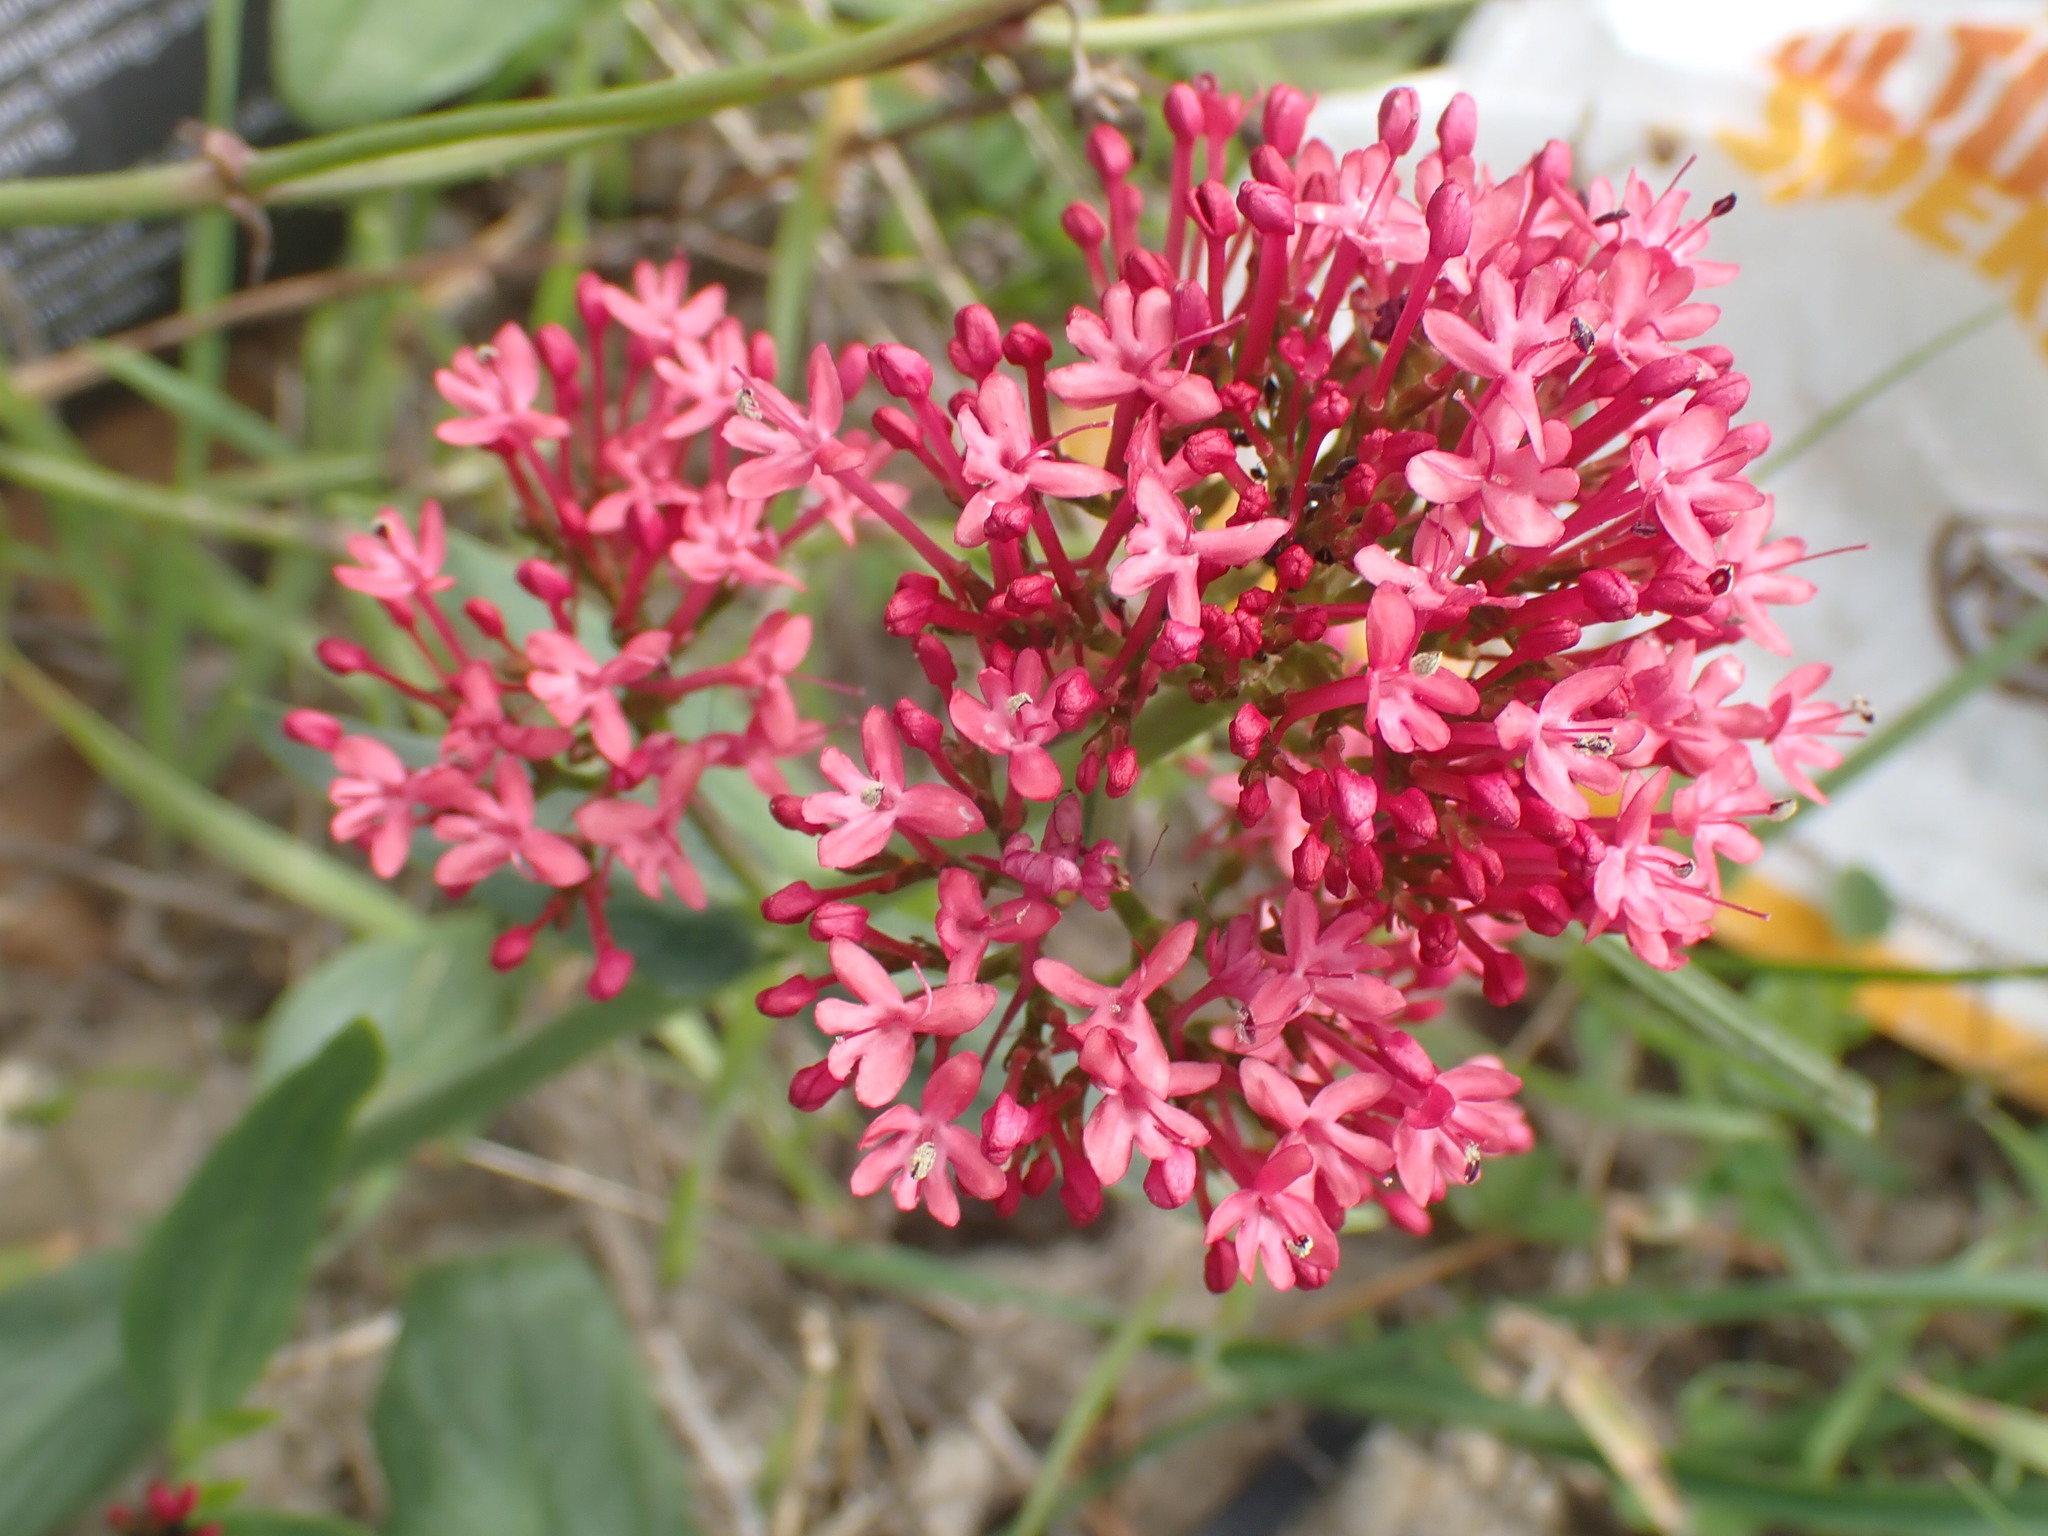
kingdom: Plantae
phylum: Tracheophyta
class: Magnoliopsida
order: Dipsacales
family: Caprifoliaceae
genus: Centranthus
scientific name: Centranthus ruber
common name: Red valerian
